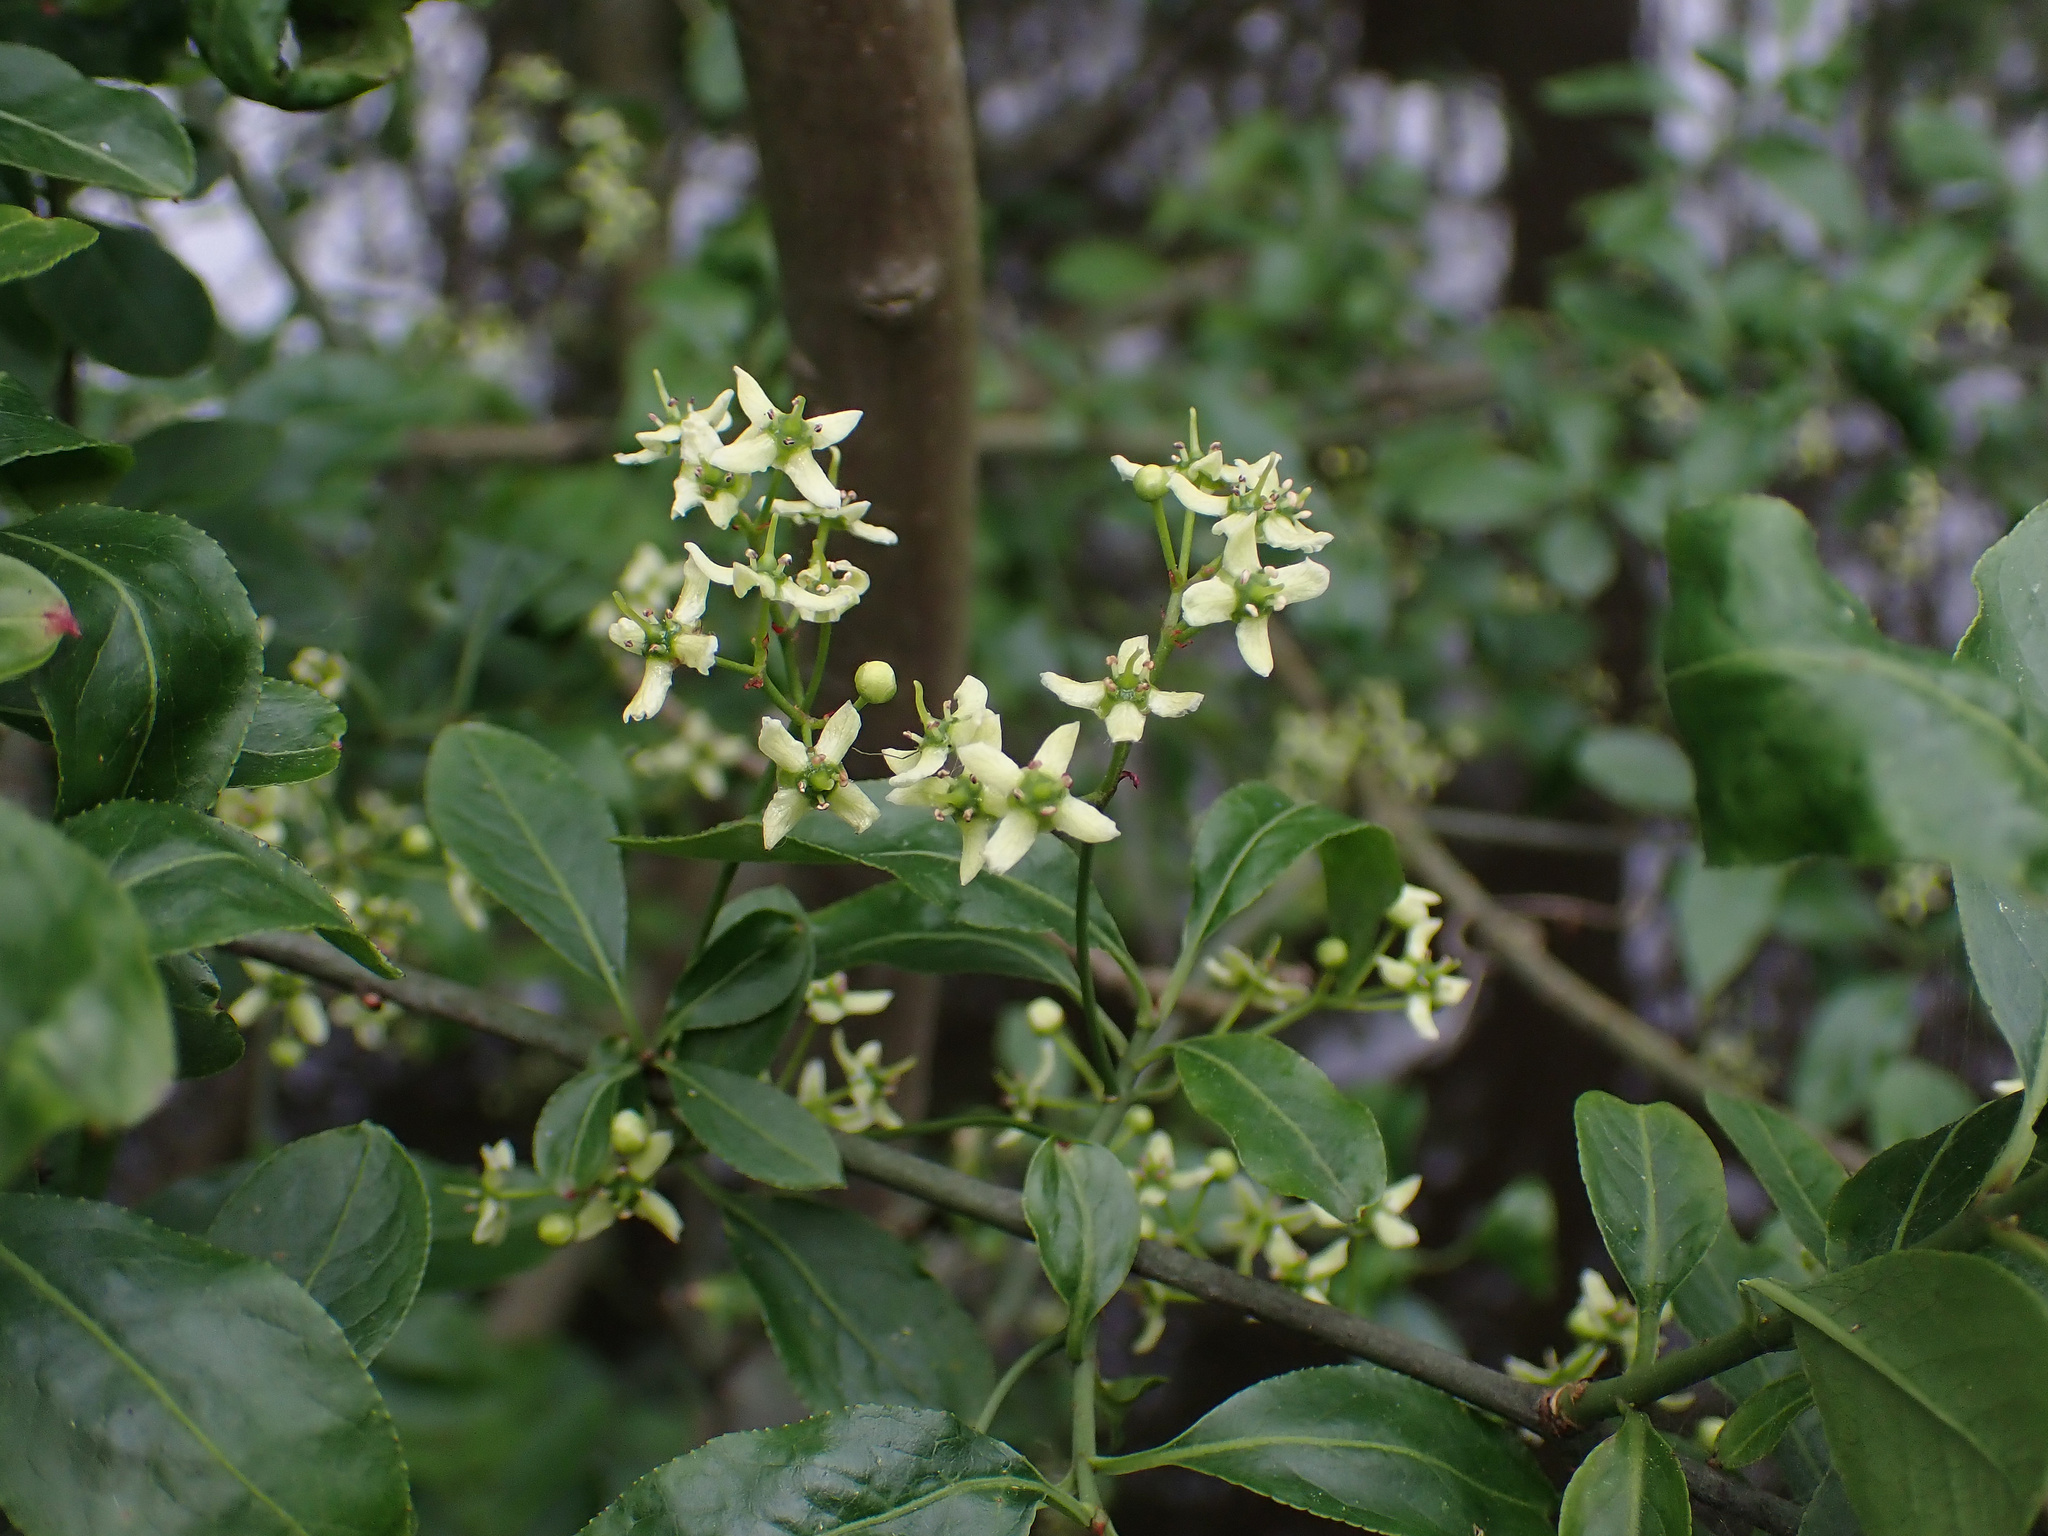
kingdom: Plantae
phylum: Tracheophyta
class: Magnoliopsida
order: Celastrales
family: Celastraceae
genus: Euonymus
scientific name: Euonymus europaeus
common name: Spindle
